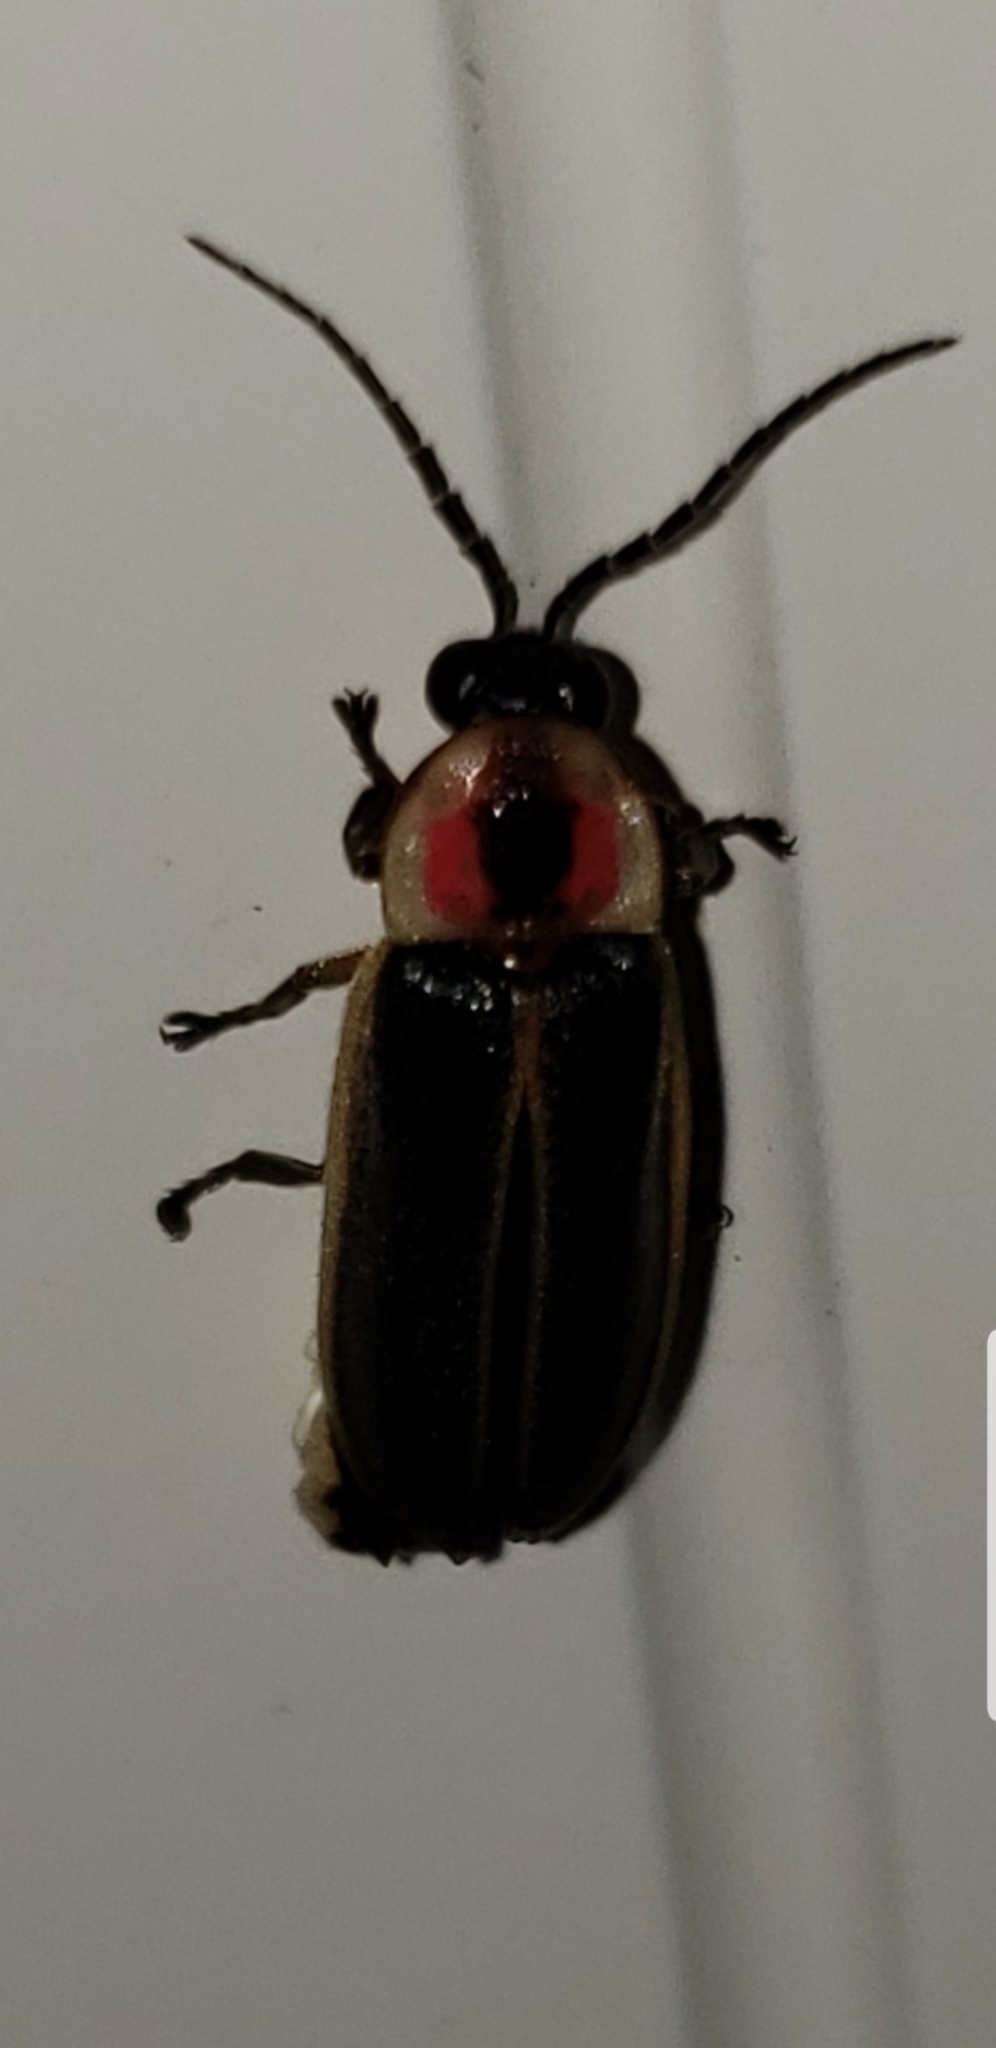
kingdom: Animalia
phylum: Arthropoda
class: Insecta
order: Coleoptera
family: Lampyridae
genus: Photinus
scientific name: Photinus pyralis
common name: Big dipper firefly
